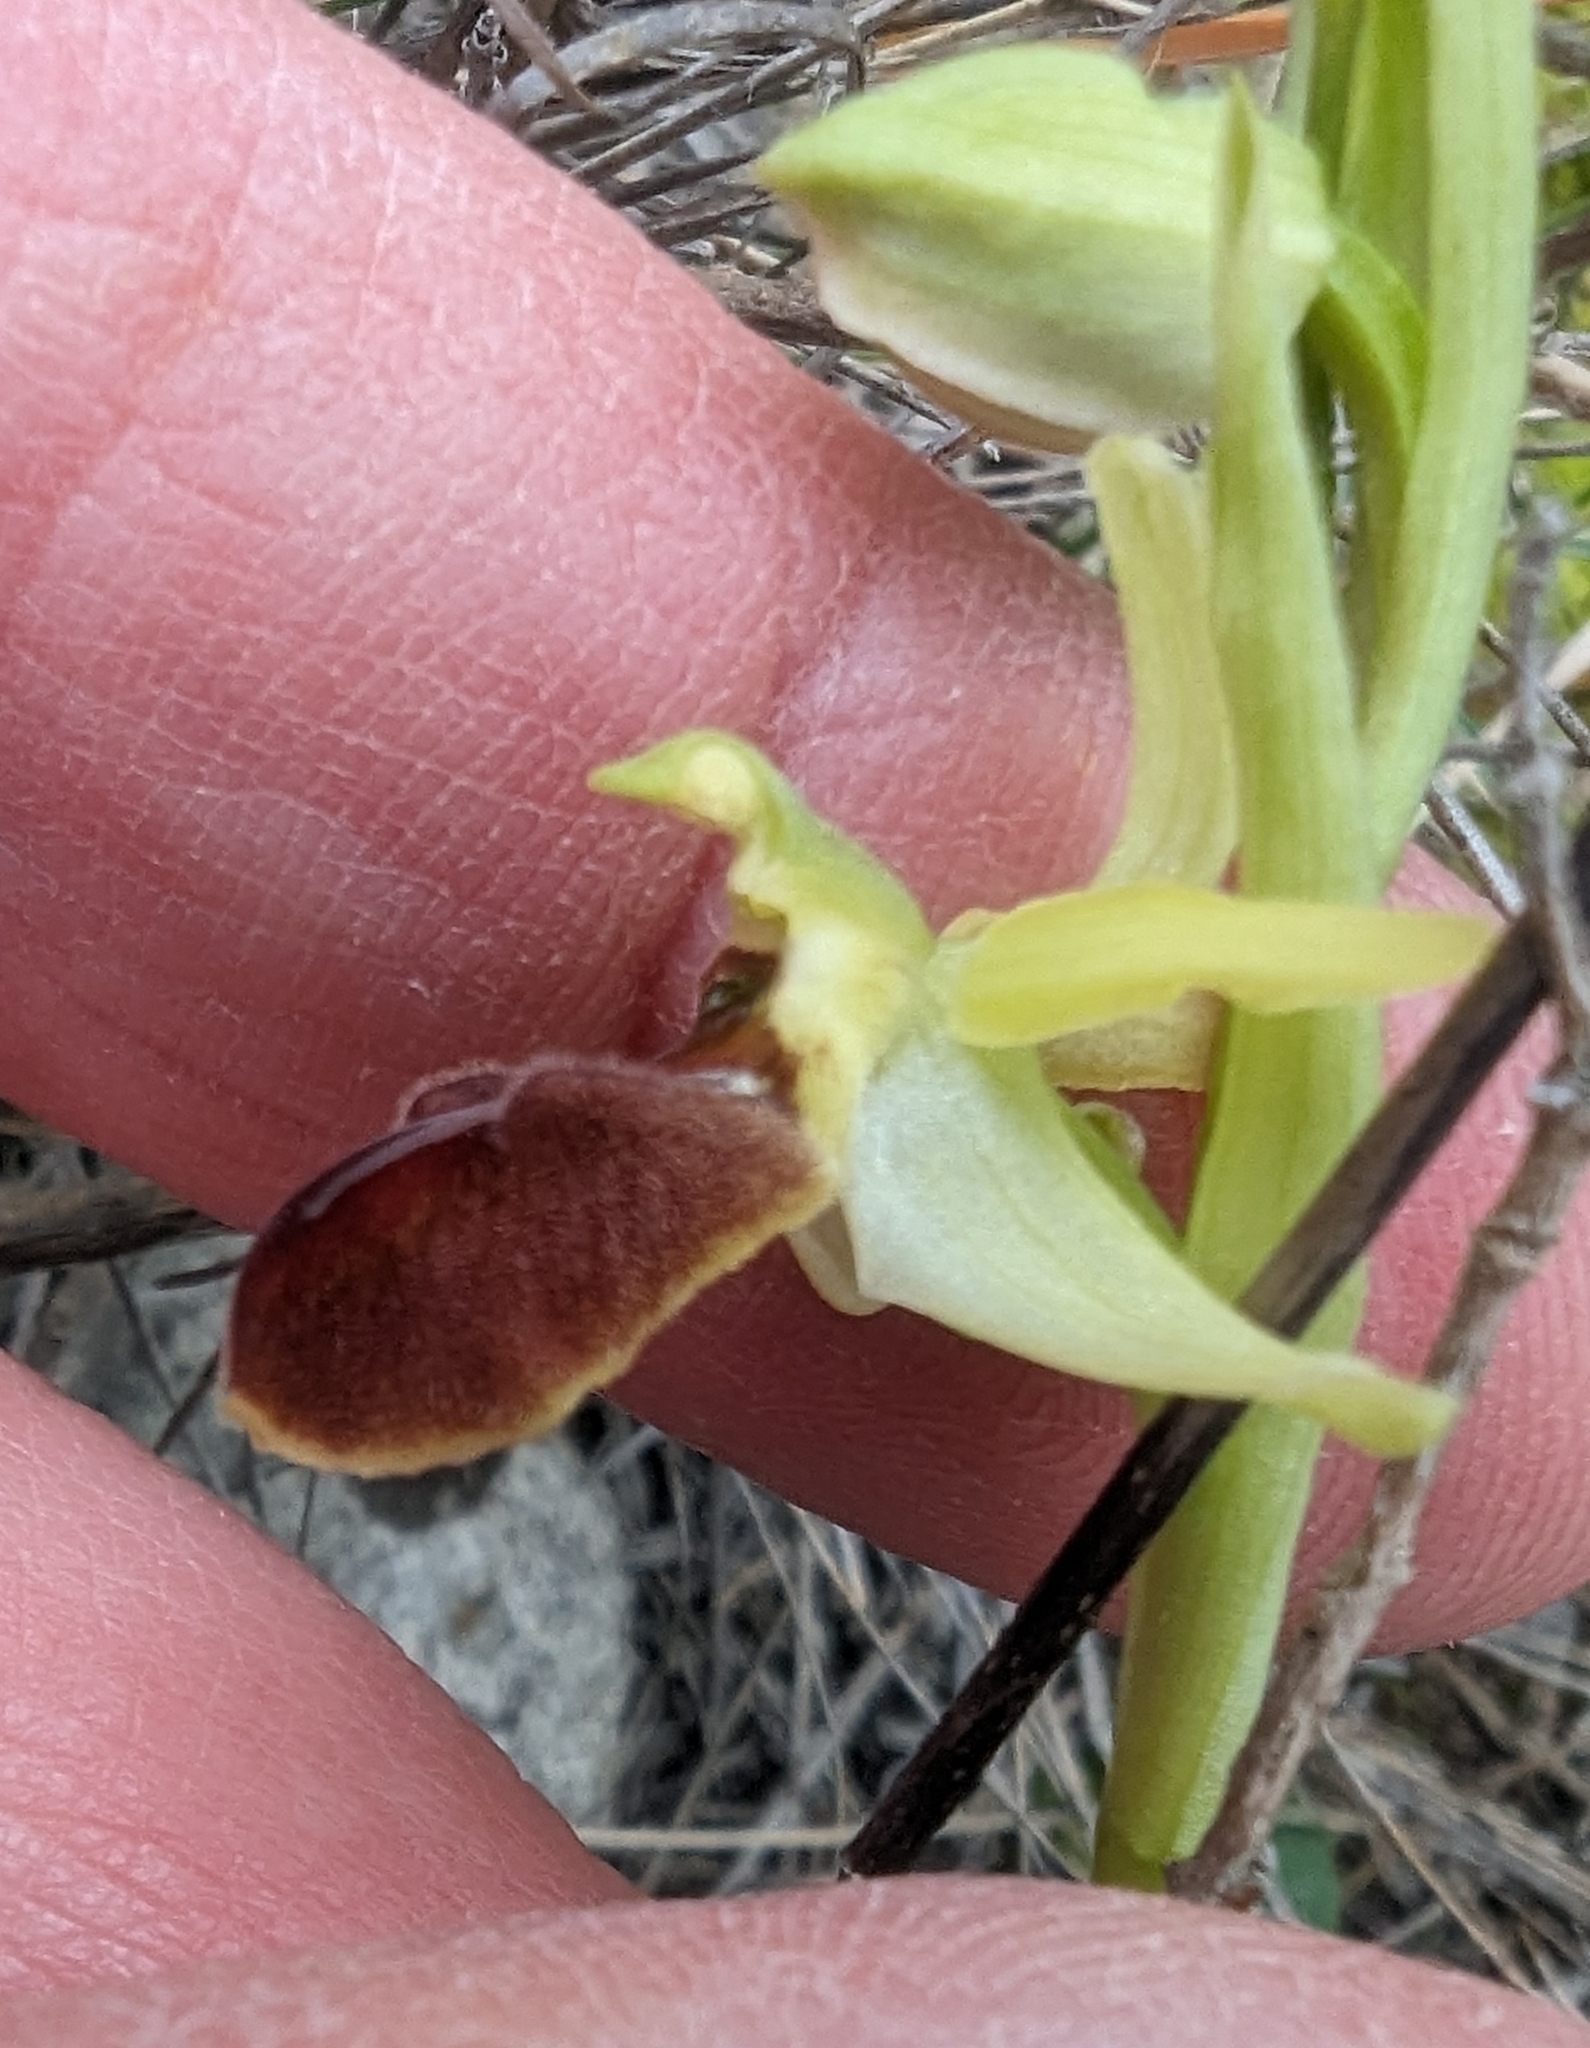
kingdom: Plantae
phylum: Tracheophyta
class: Liliopsida
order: Asparagales
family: Orchidaceae
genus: Ophrys
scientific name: Ophrys sphegodes
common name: Early spider-orchid
